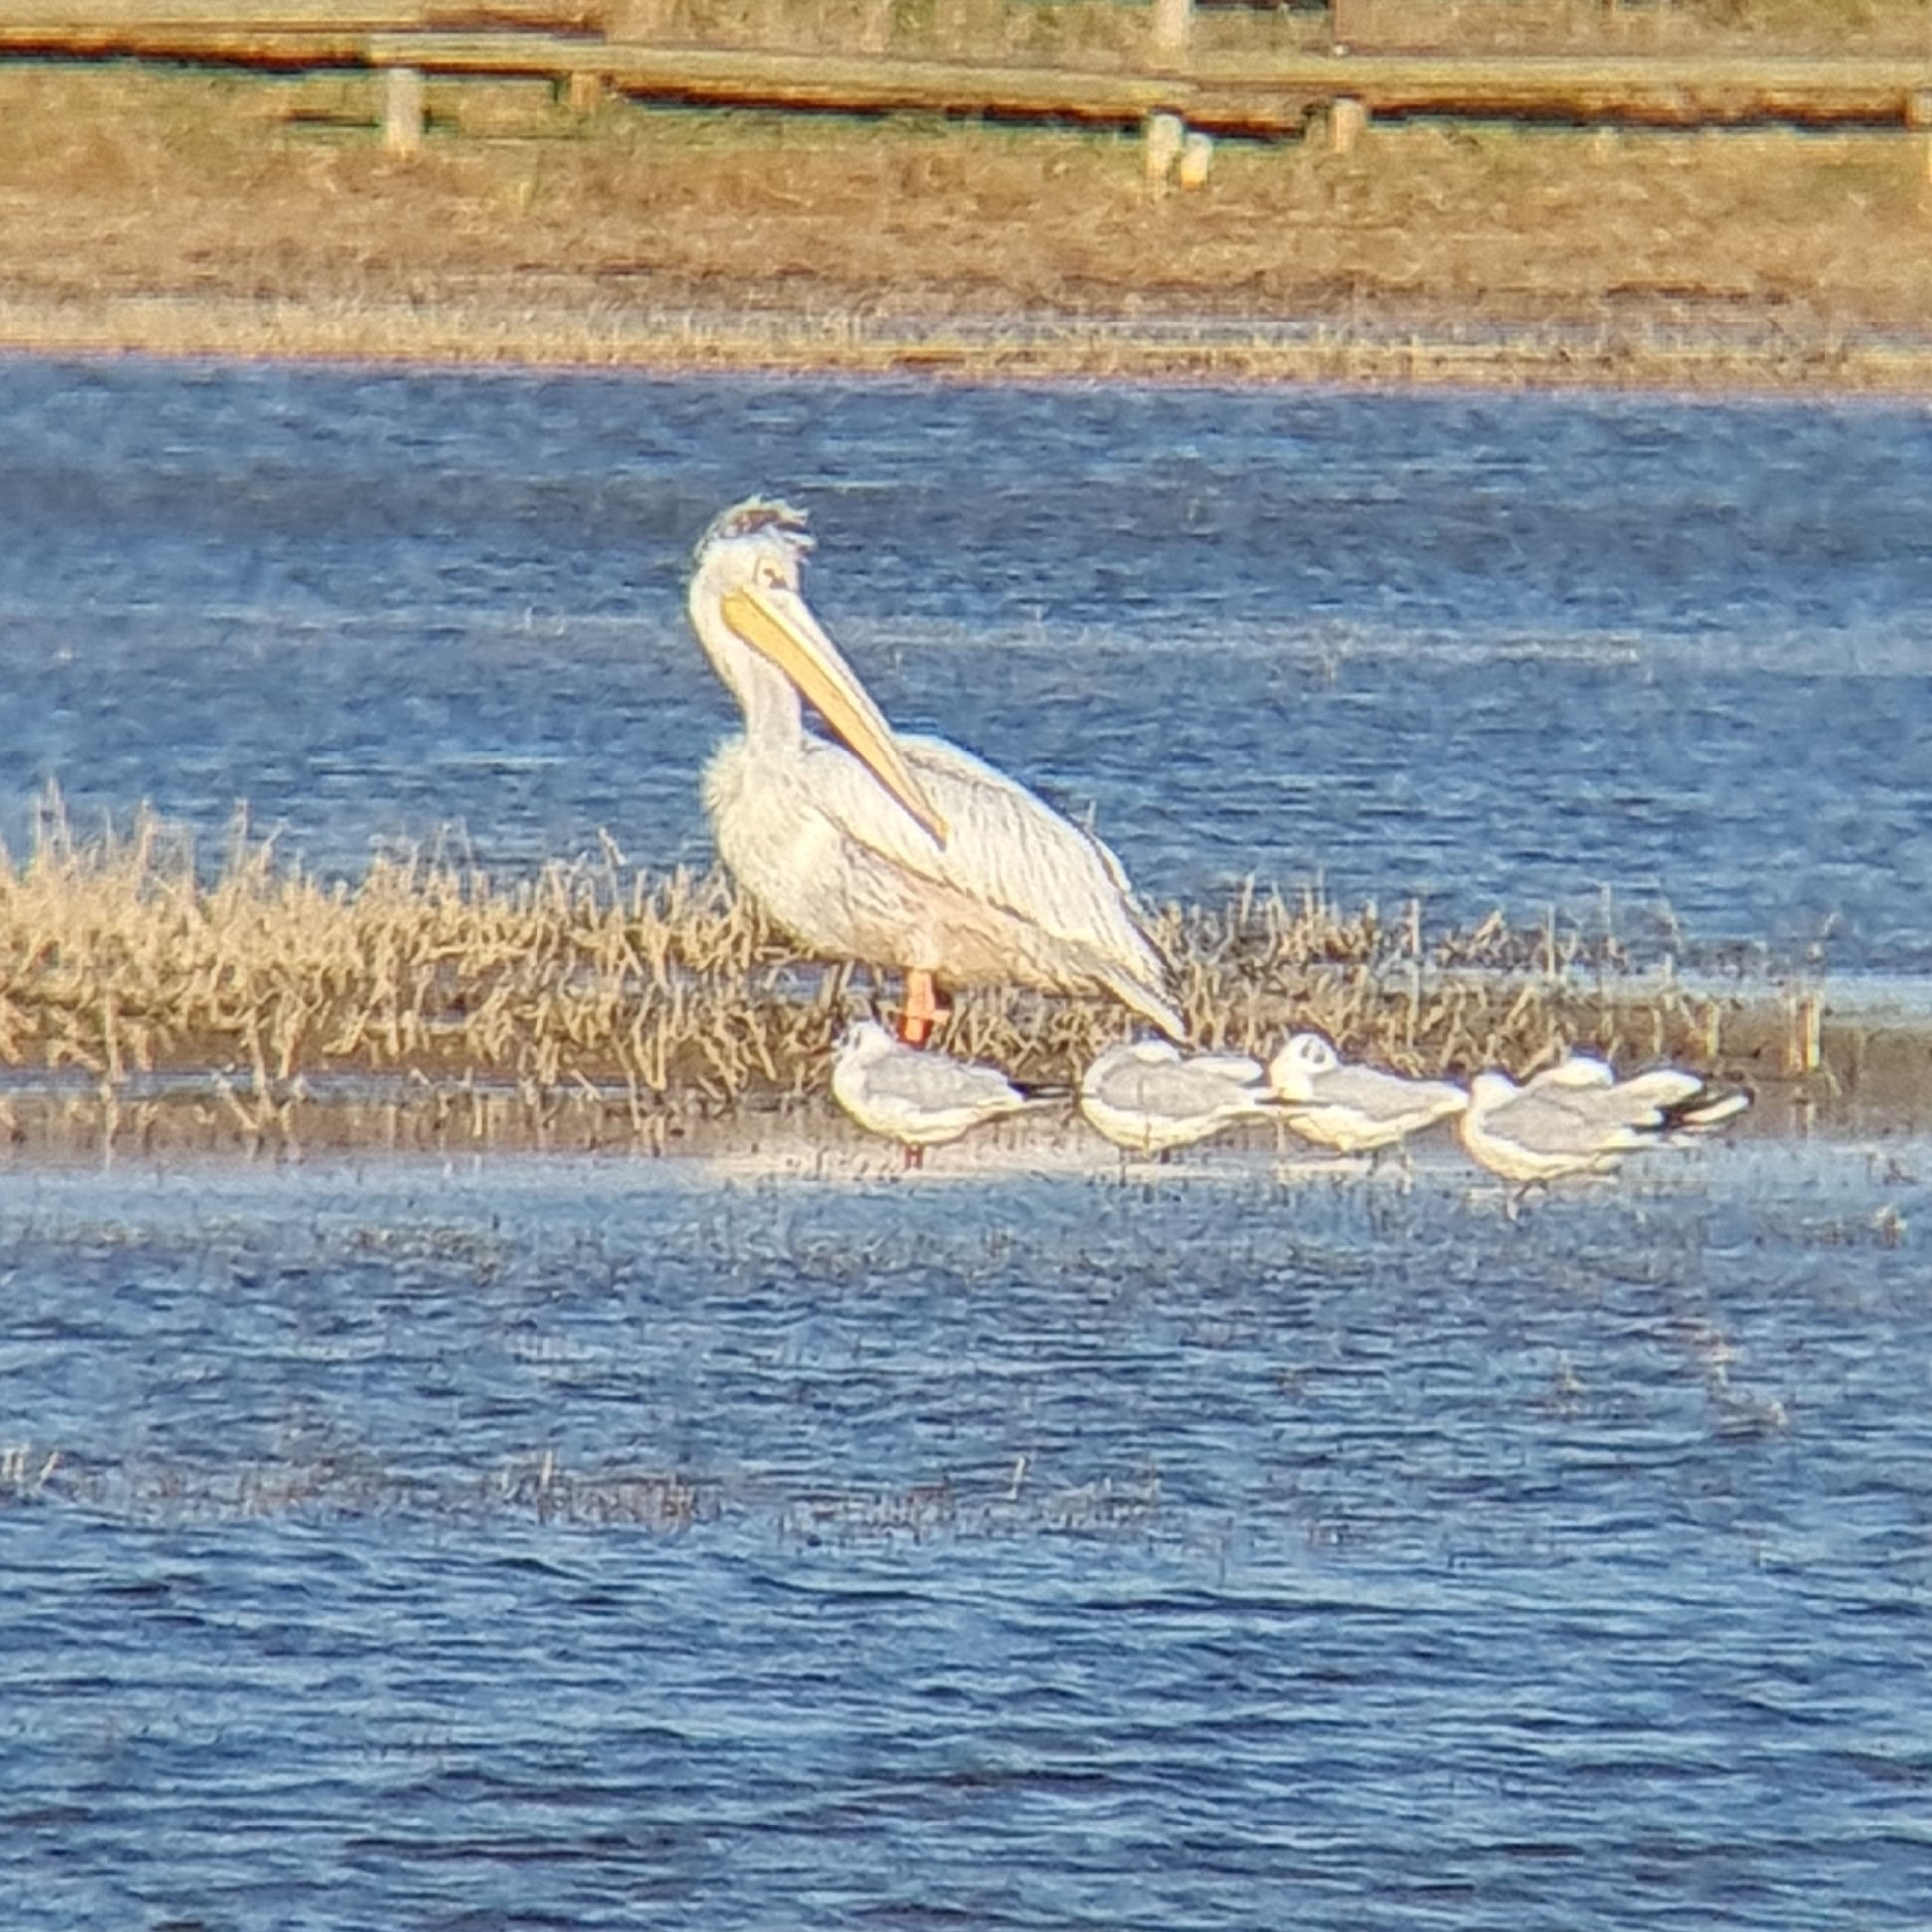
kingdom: Animalia
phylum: Chordata
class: Aves
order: Pelecaniformes
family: Pelecanidae
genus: Pelecanus
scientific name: Pelecanus rufescens
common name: Pink-backed pelican
